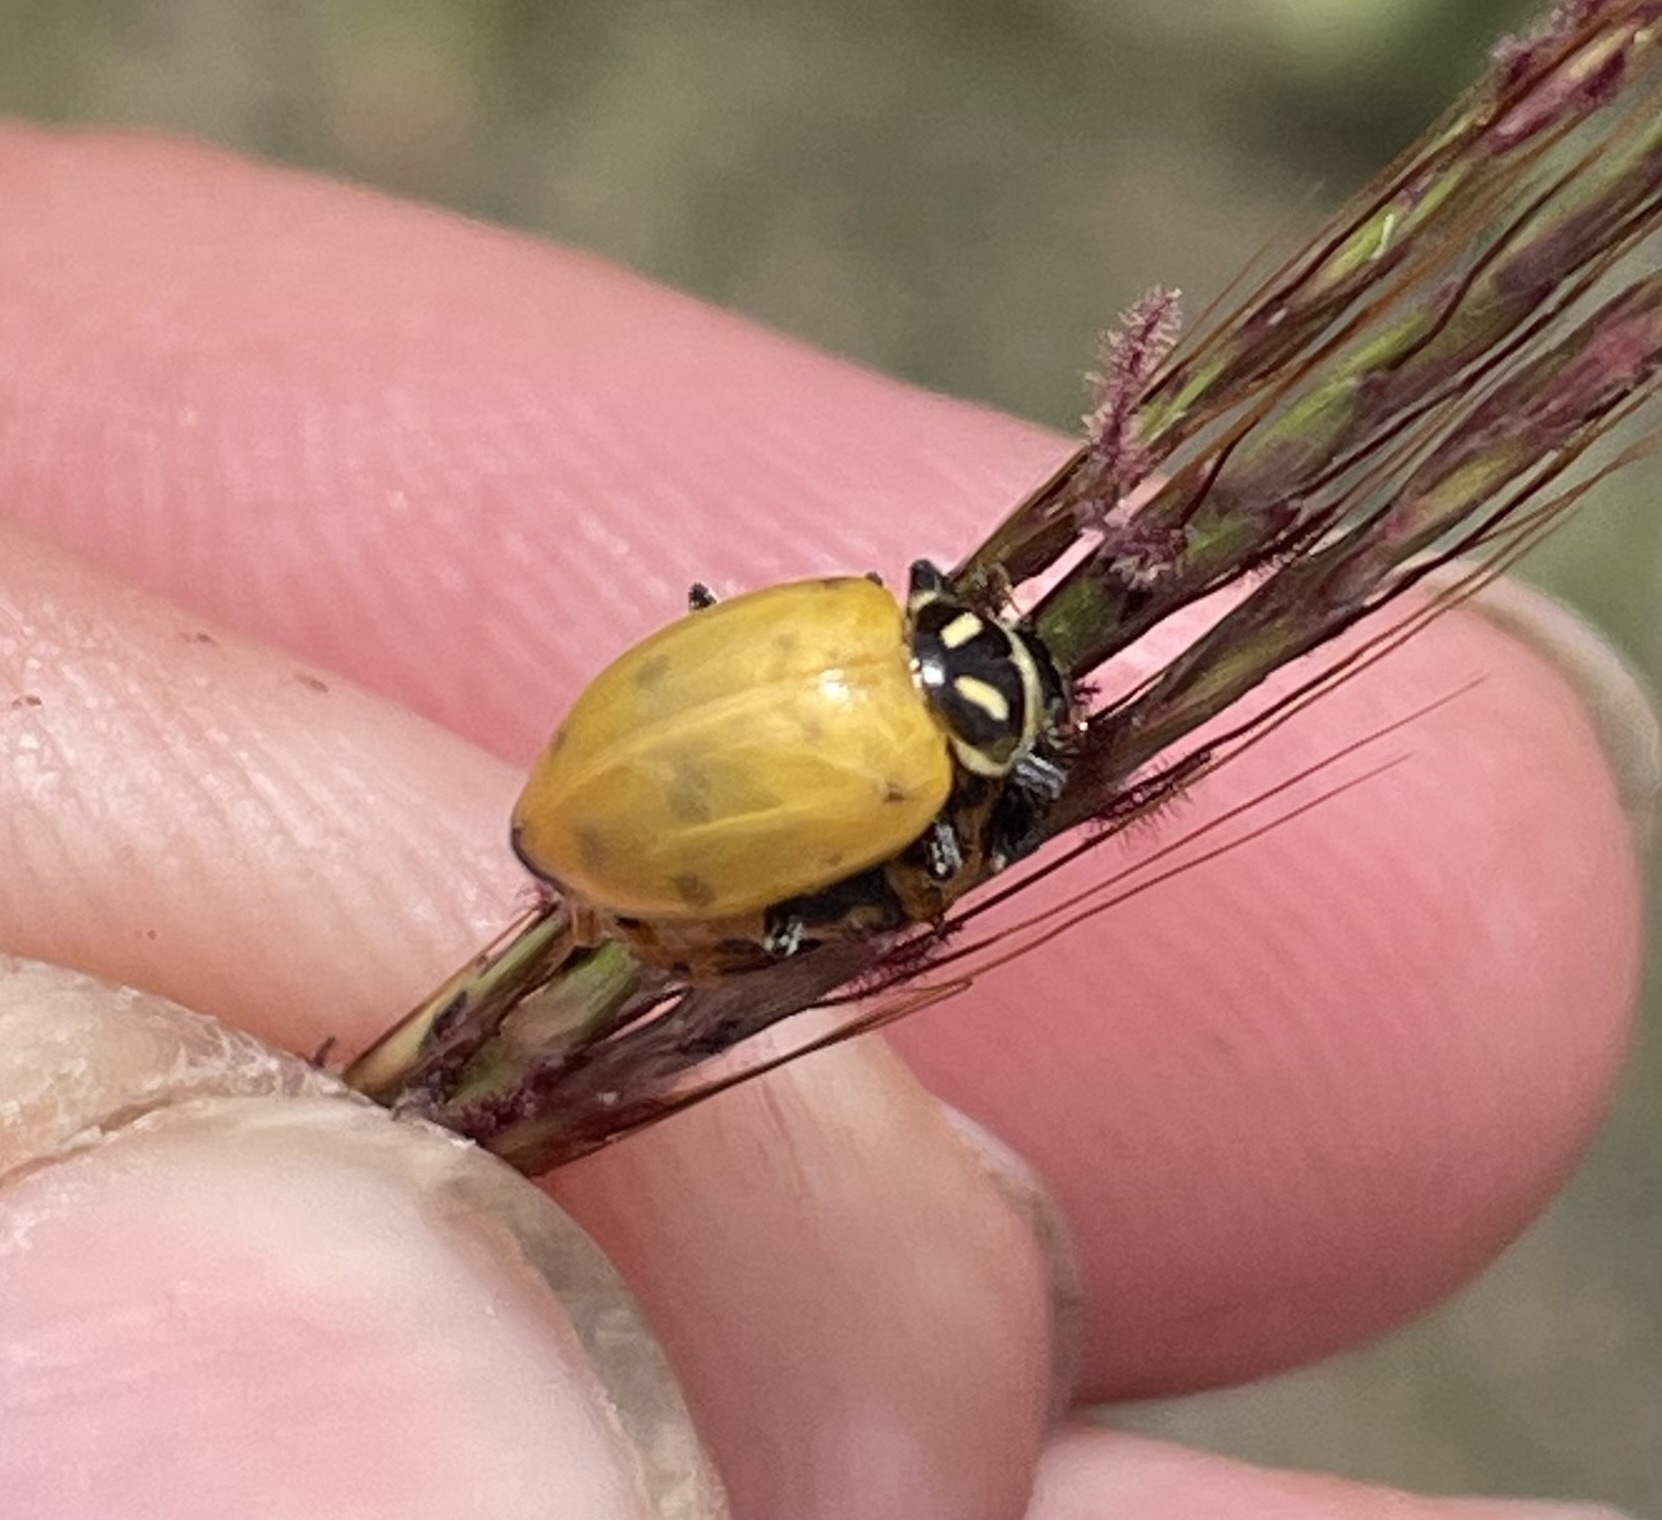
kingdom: Animalia
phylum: Arthropoda
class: Insecta
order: Coleoptera
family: Coccinellidae
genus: Hippodamia
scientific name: Hippodamia convergens
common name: Convergent lady beetle
